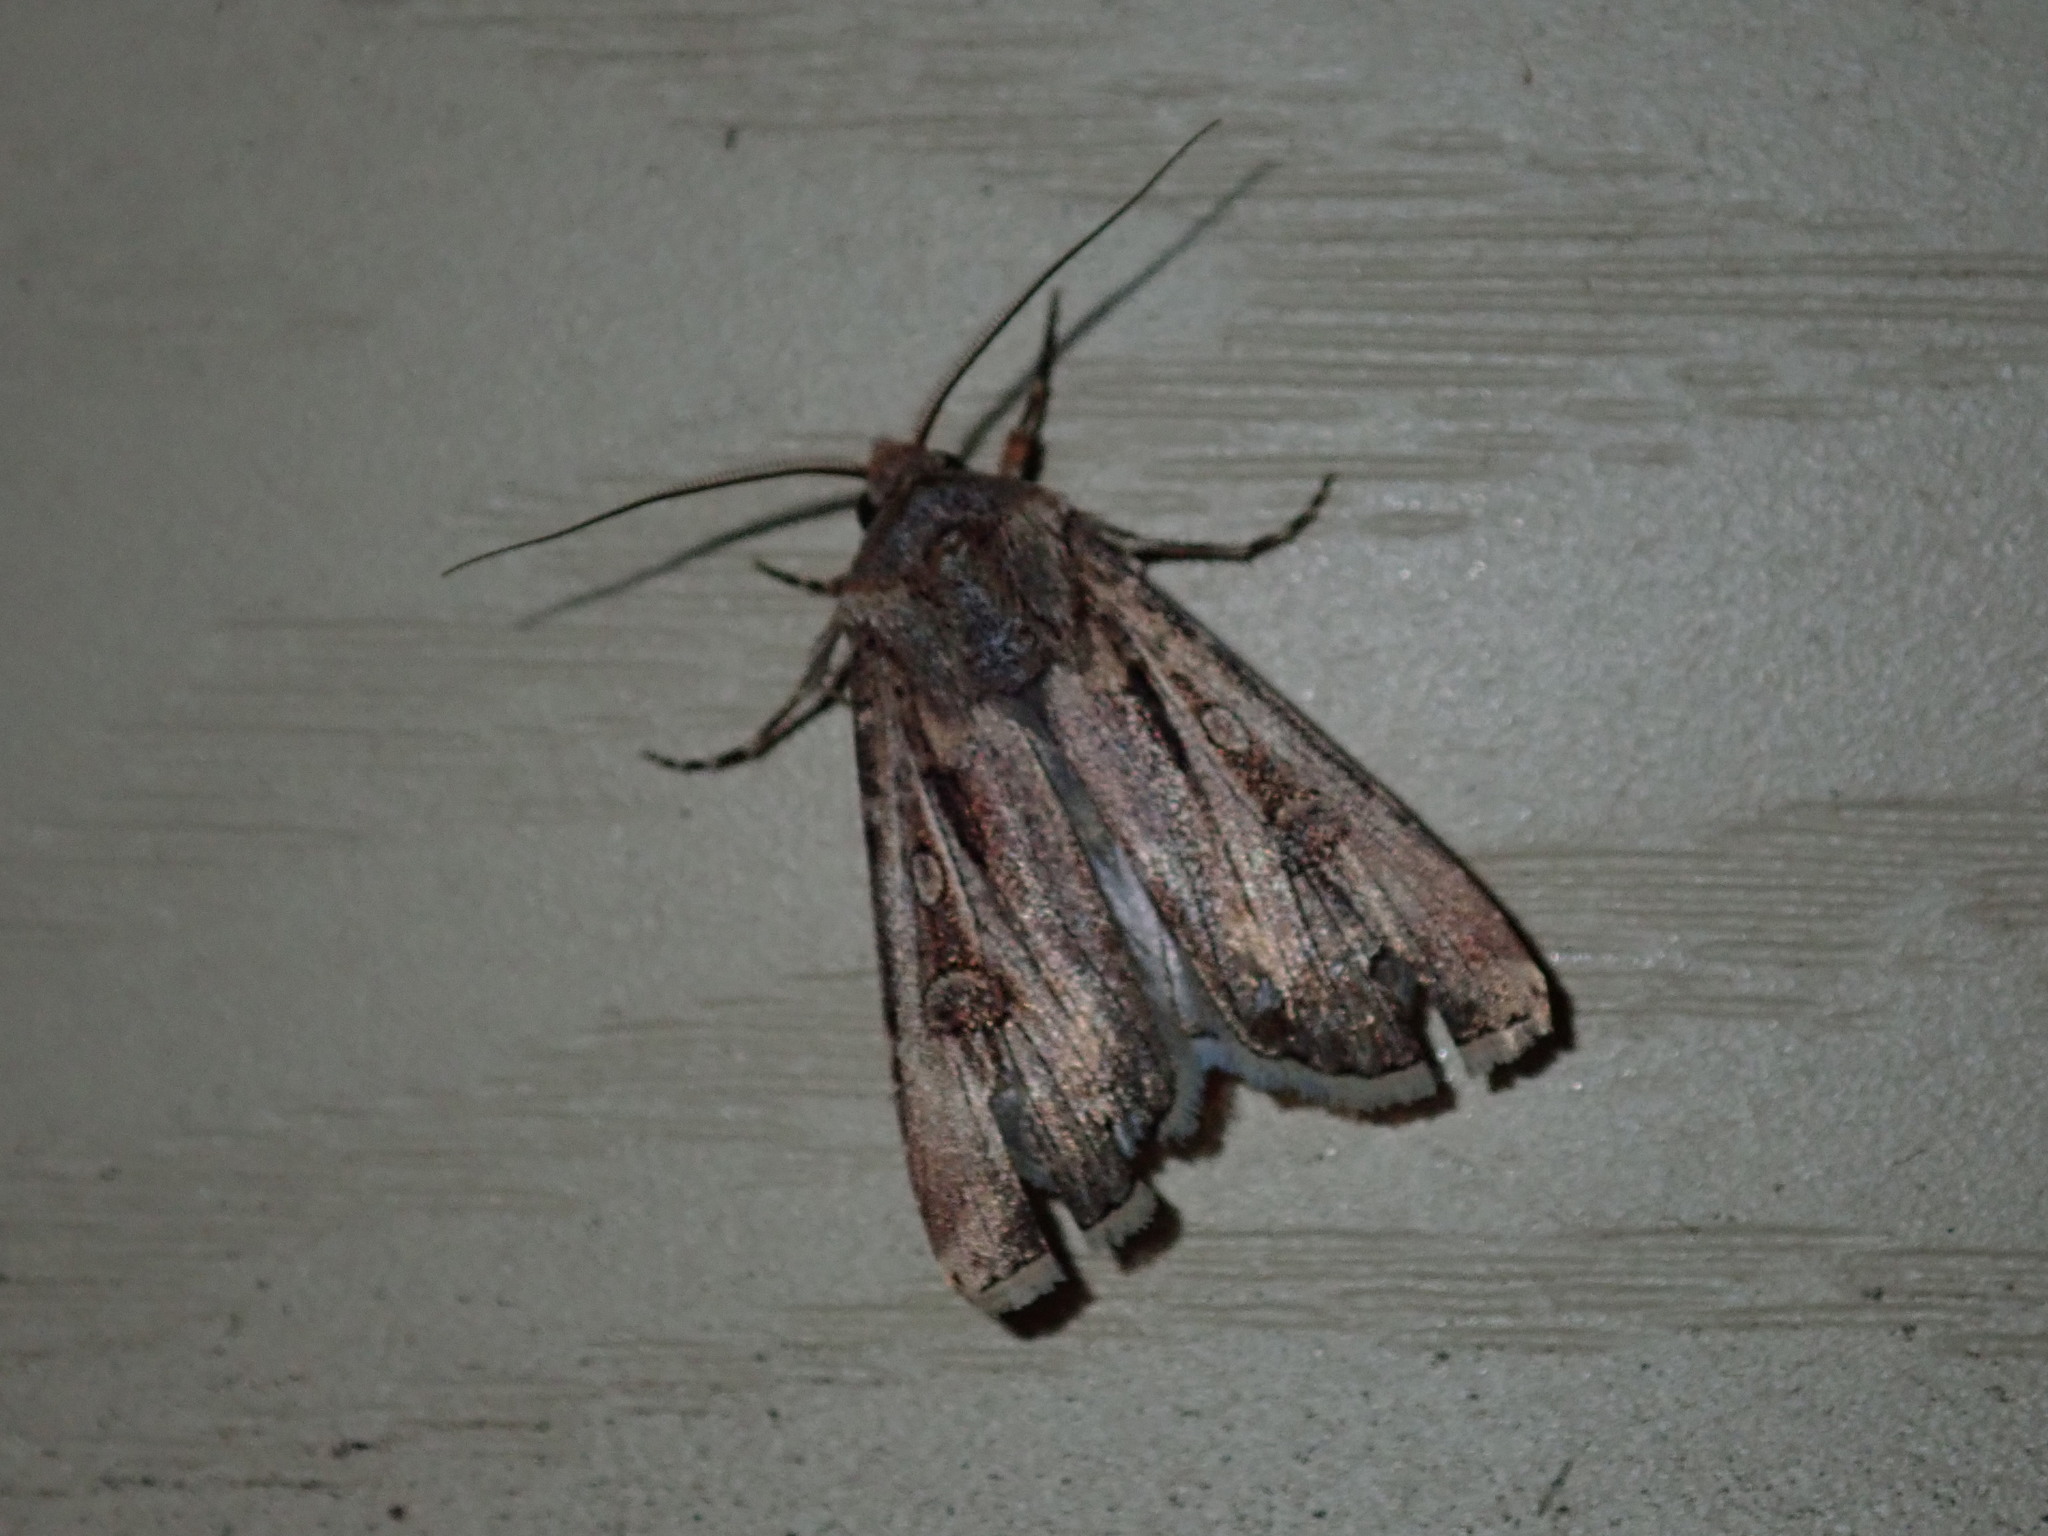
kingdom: Animalia
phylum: Arthropoda
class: Insecta
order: Lepidoptera
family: Noctuidae
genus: Agrotis
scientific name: Agrotis munda
